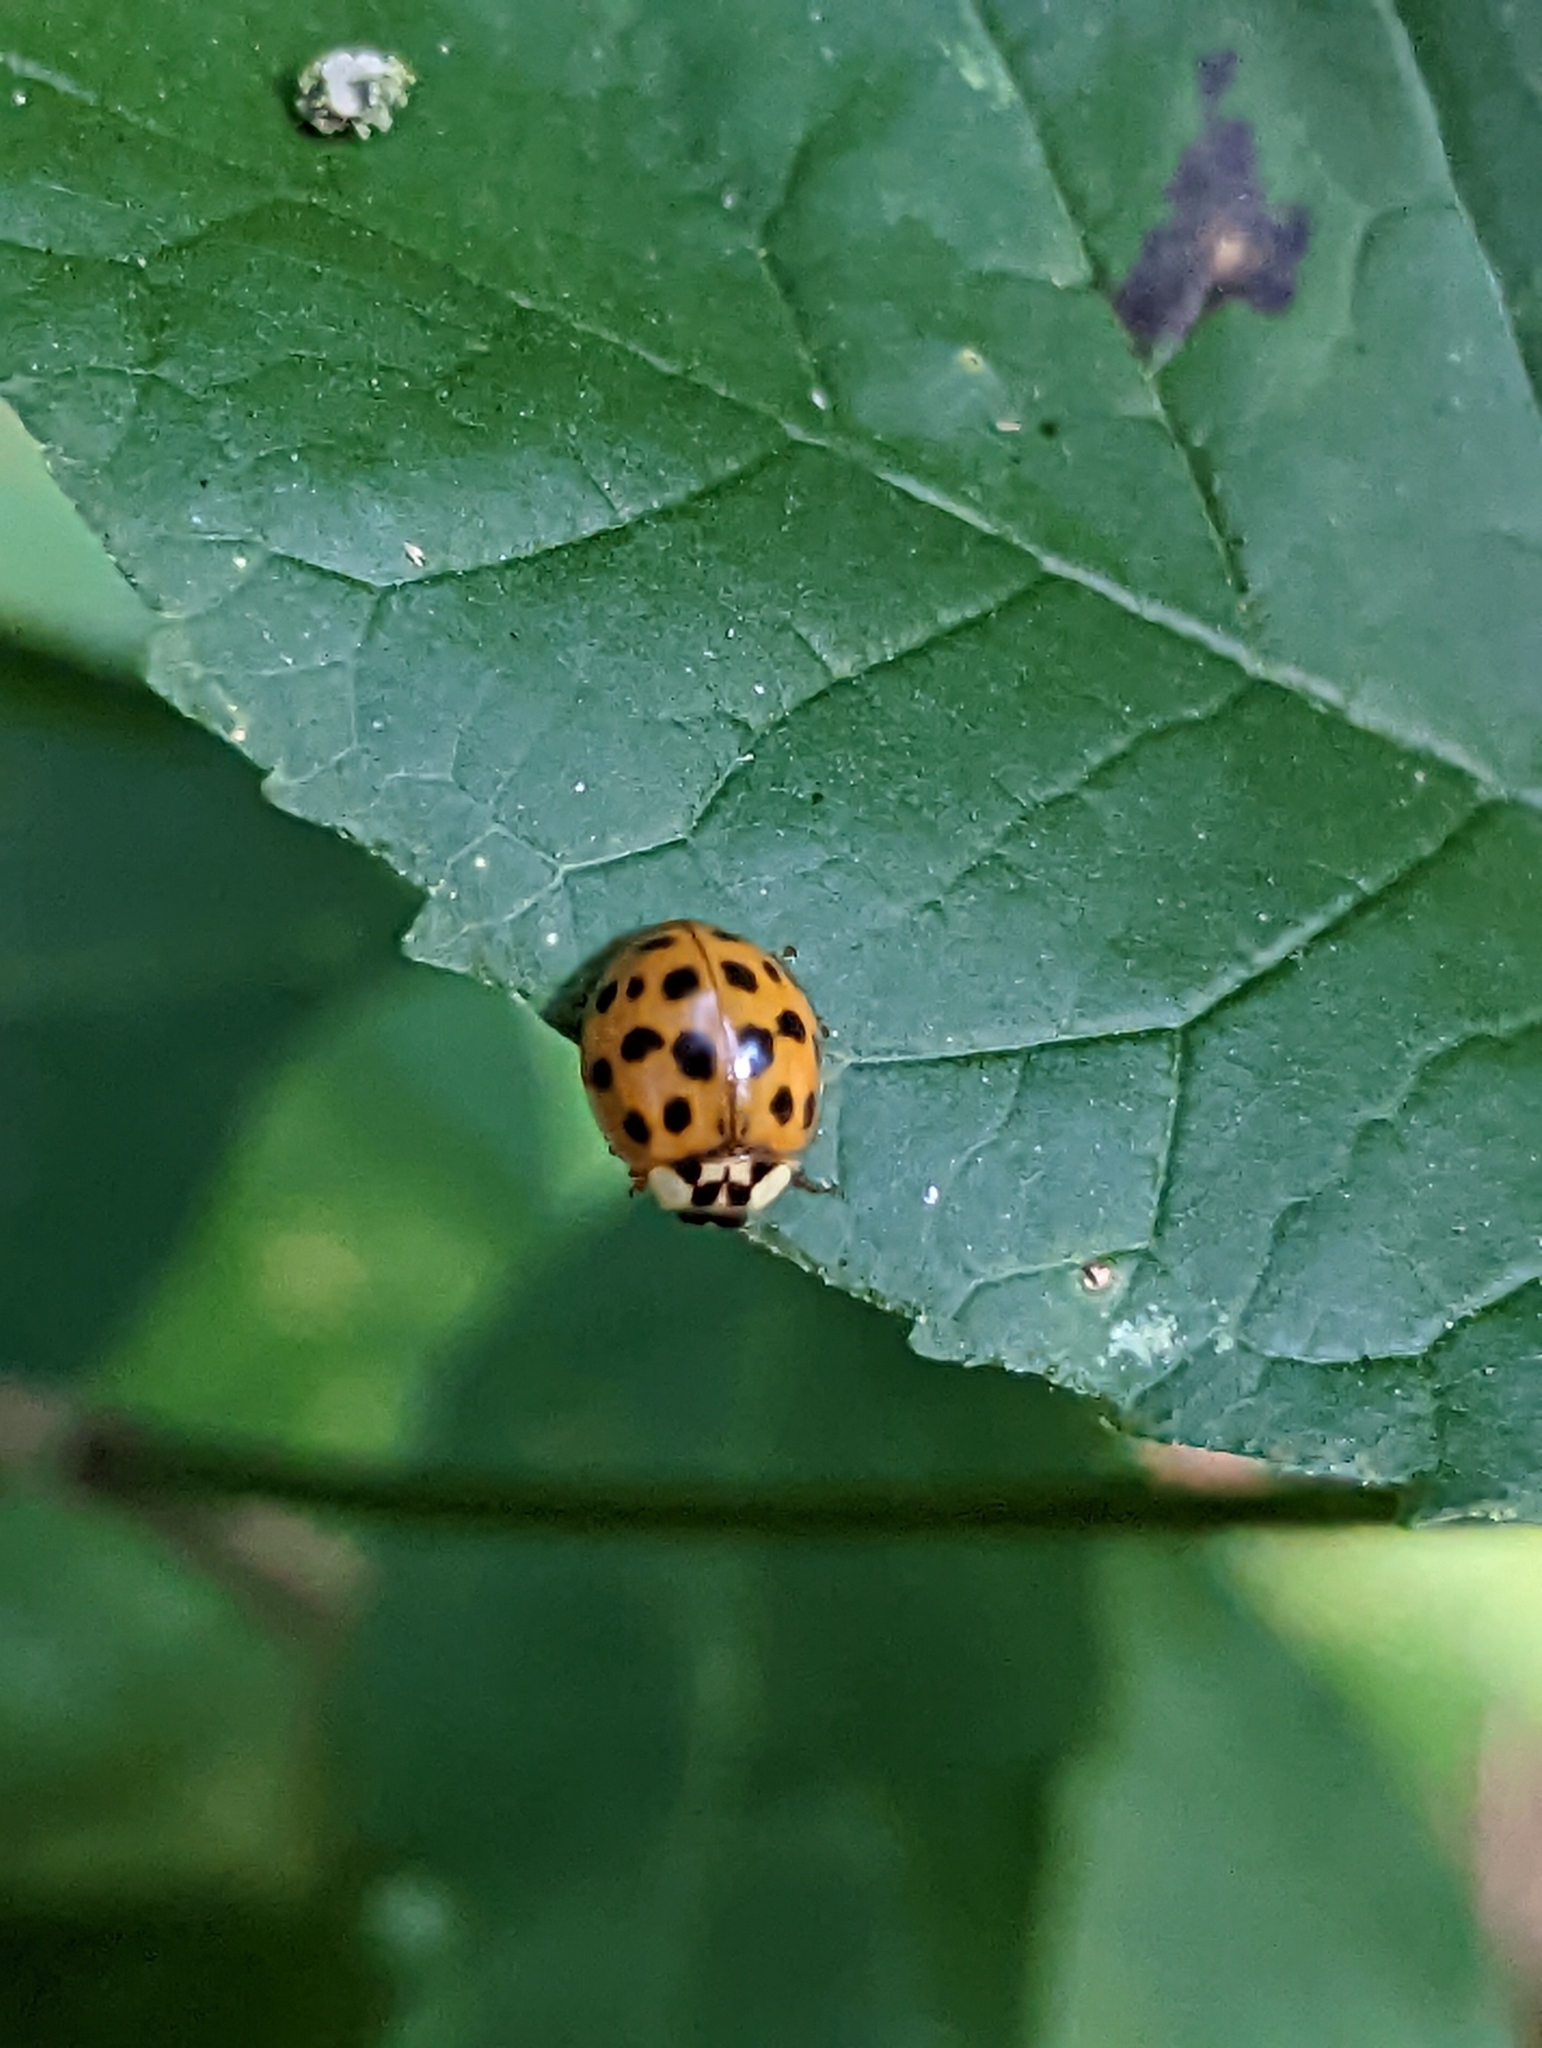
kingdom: Animalia
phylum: Arthropoda
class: Insecta
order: Coleoptera
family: Coccinellidae
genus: Harmonia
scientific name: Harmonia axyridis
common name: Harlequin ladybird
